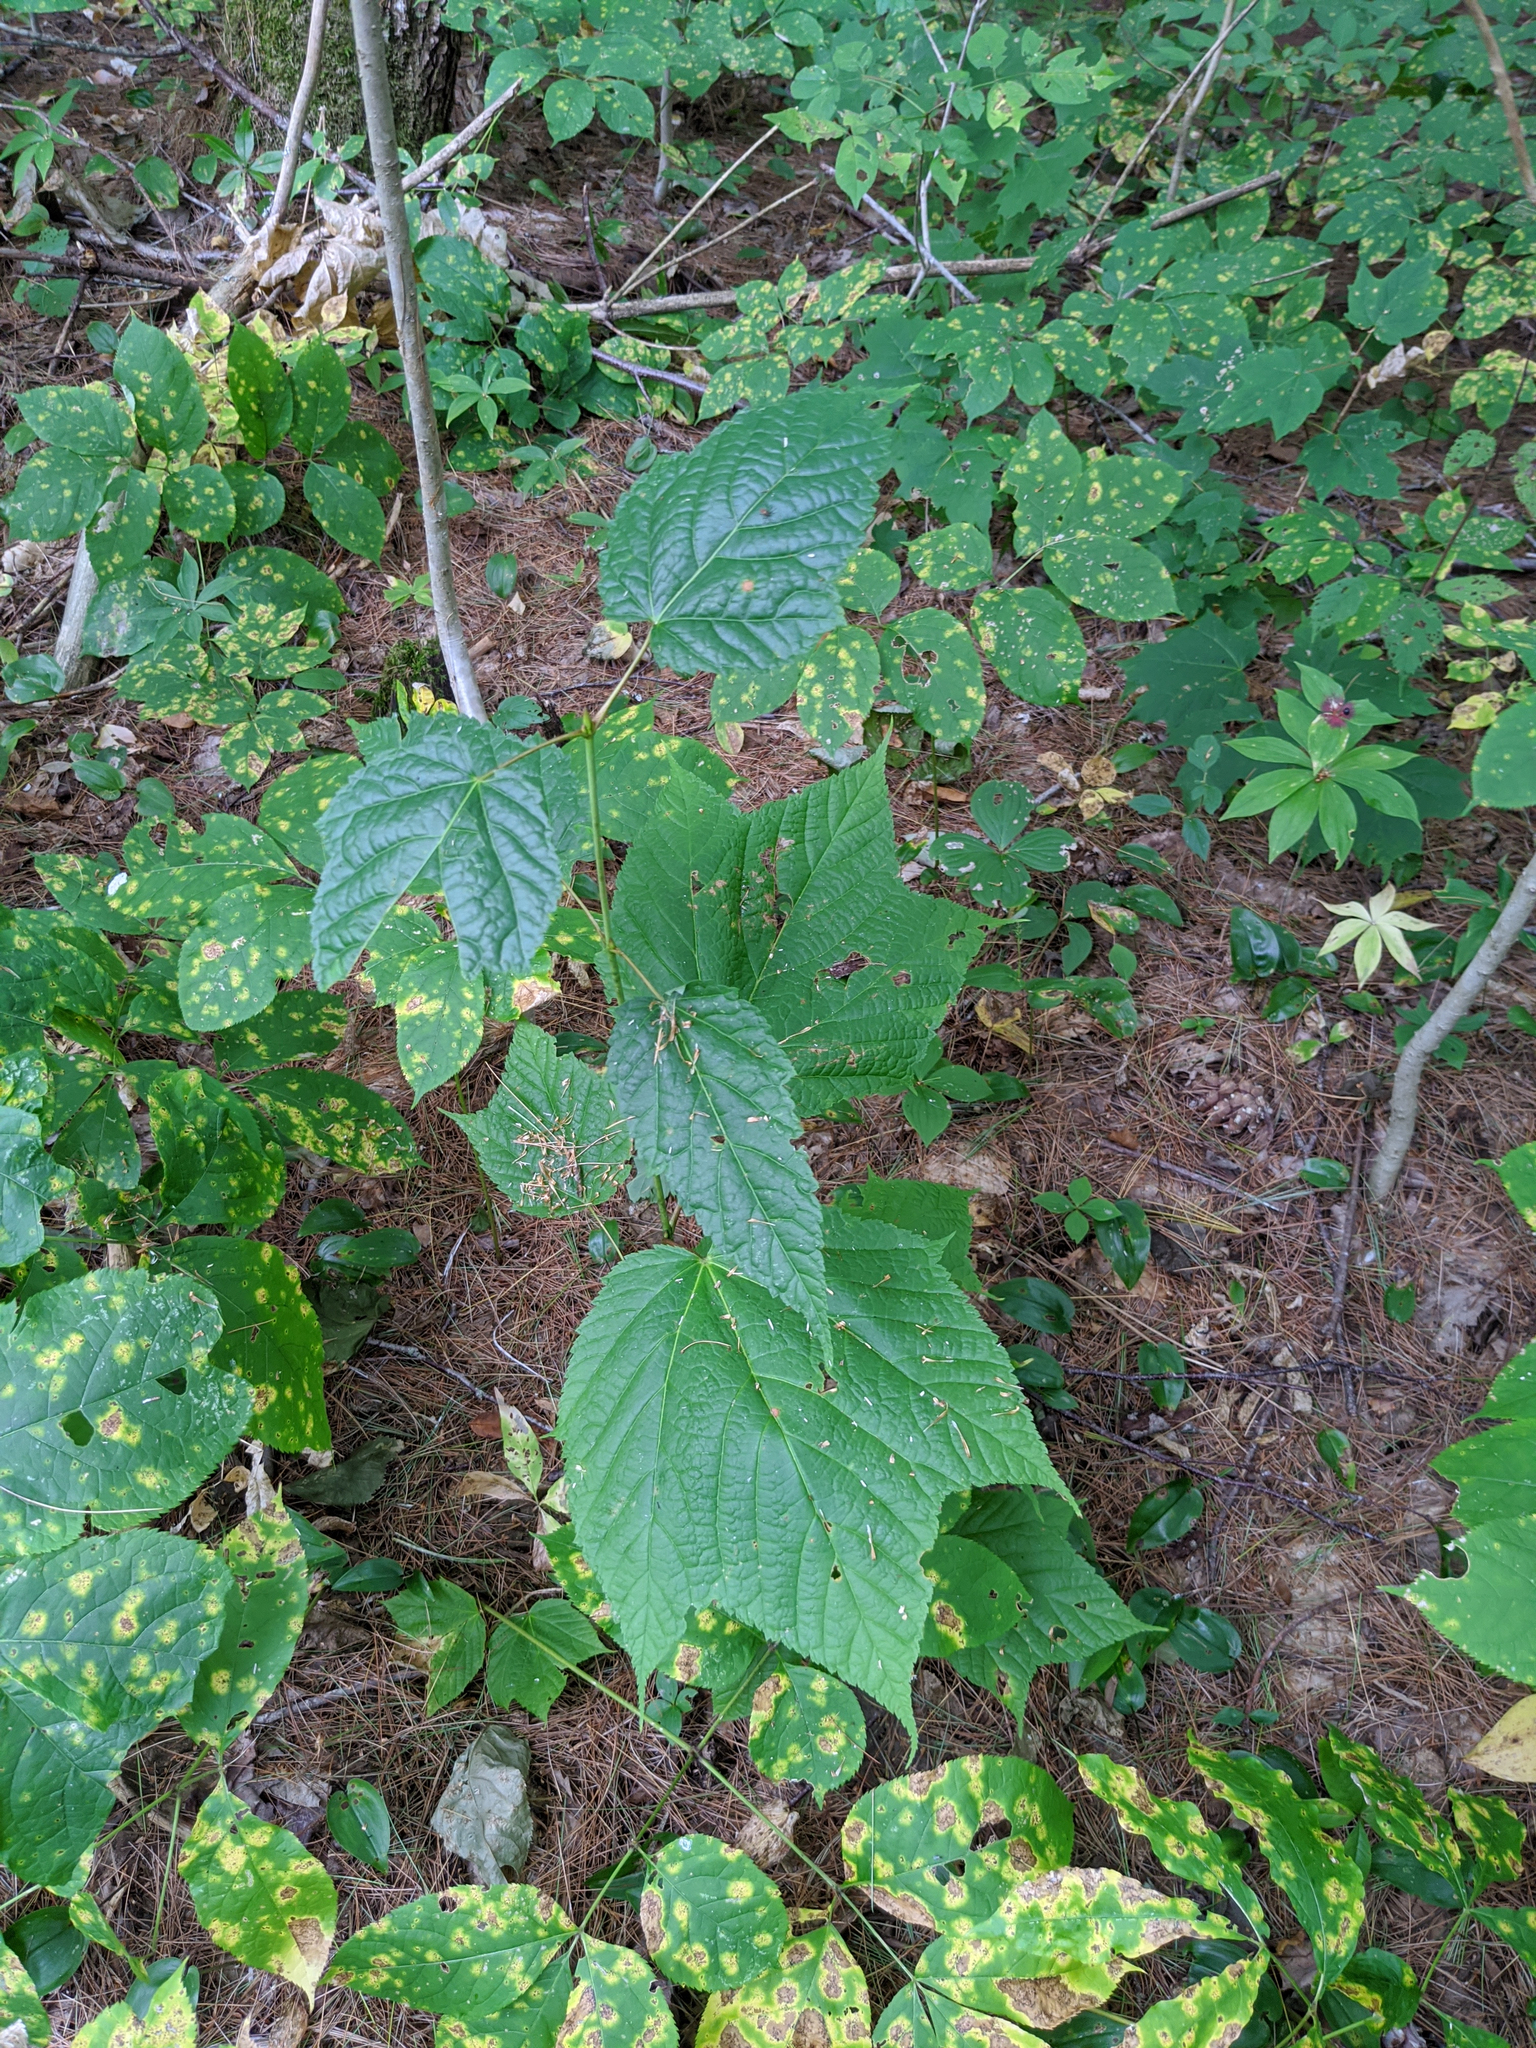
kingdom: Plantae
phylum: Tracheophyta
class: Magnoliopsida
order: Sapindales
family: Sapindaceae
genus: Acer
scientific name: Acer pensylvanicum
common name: Moosewood
